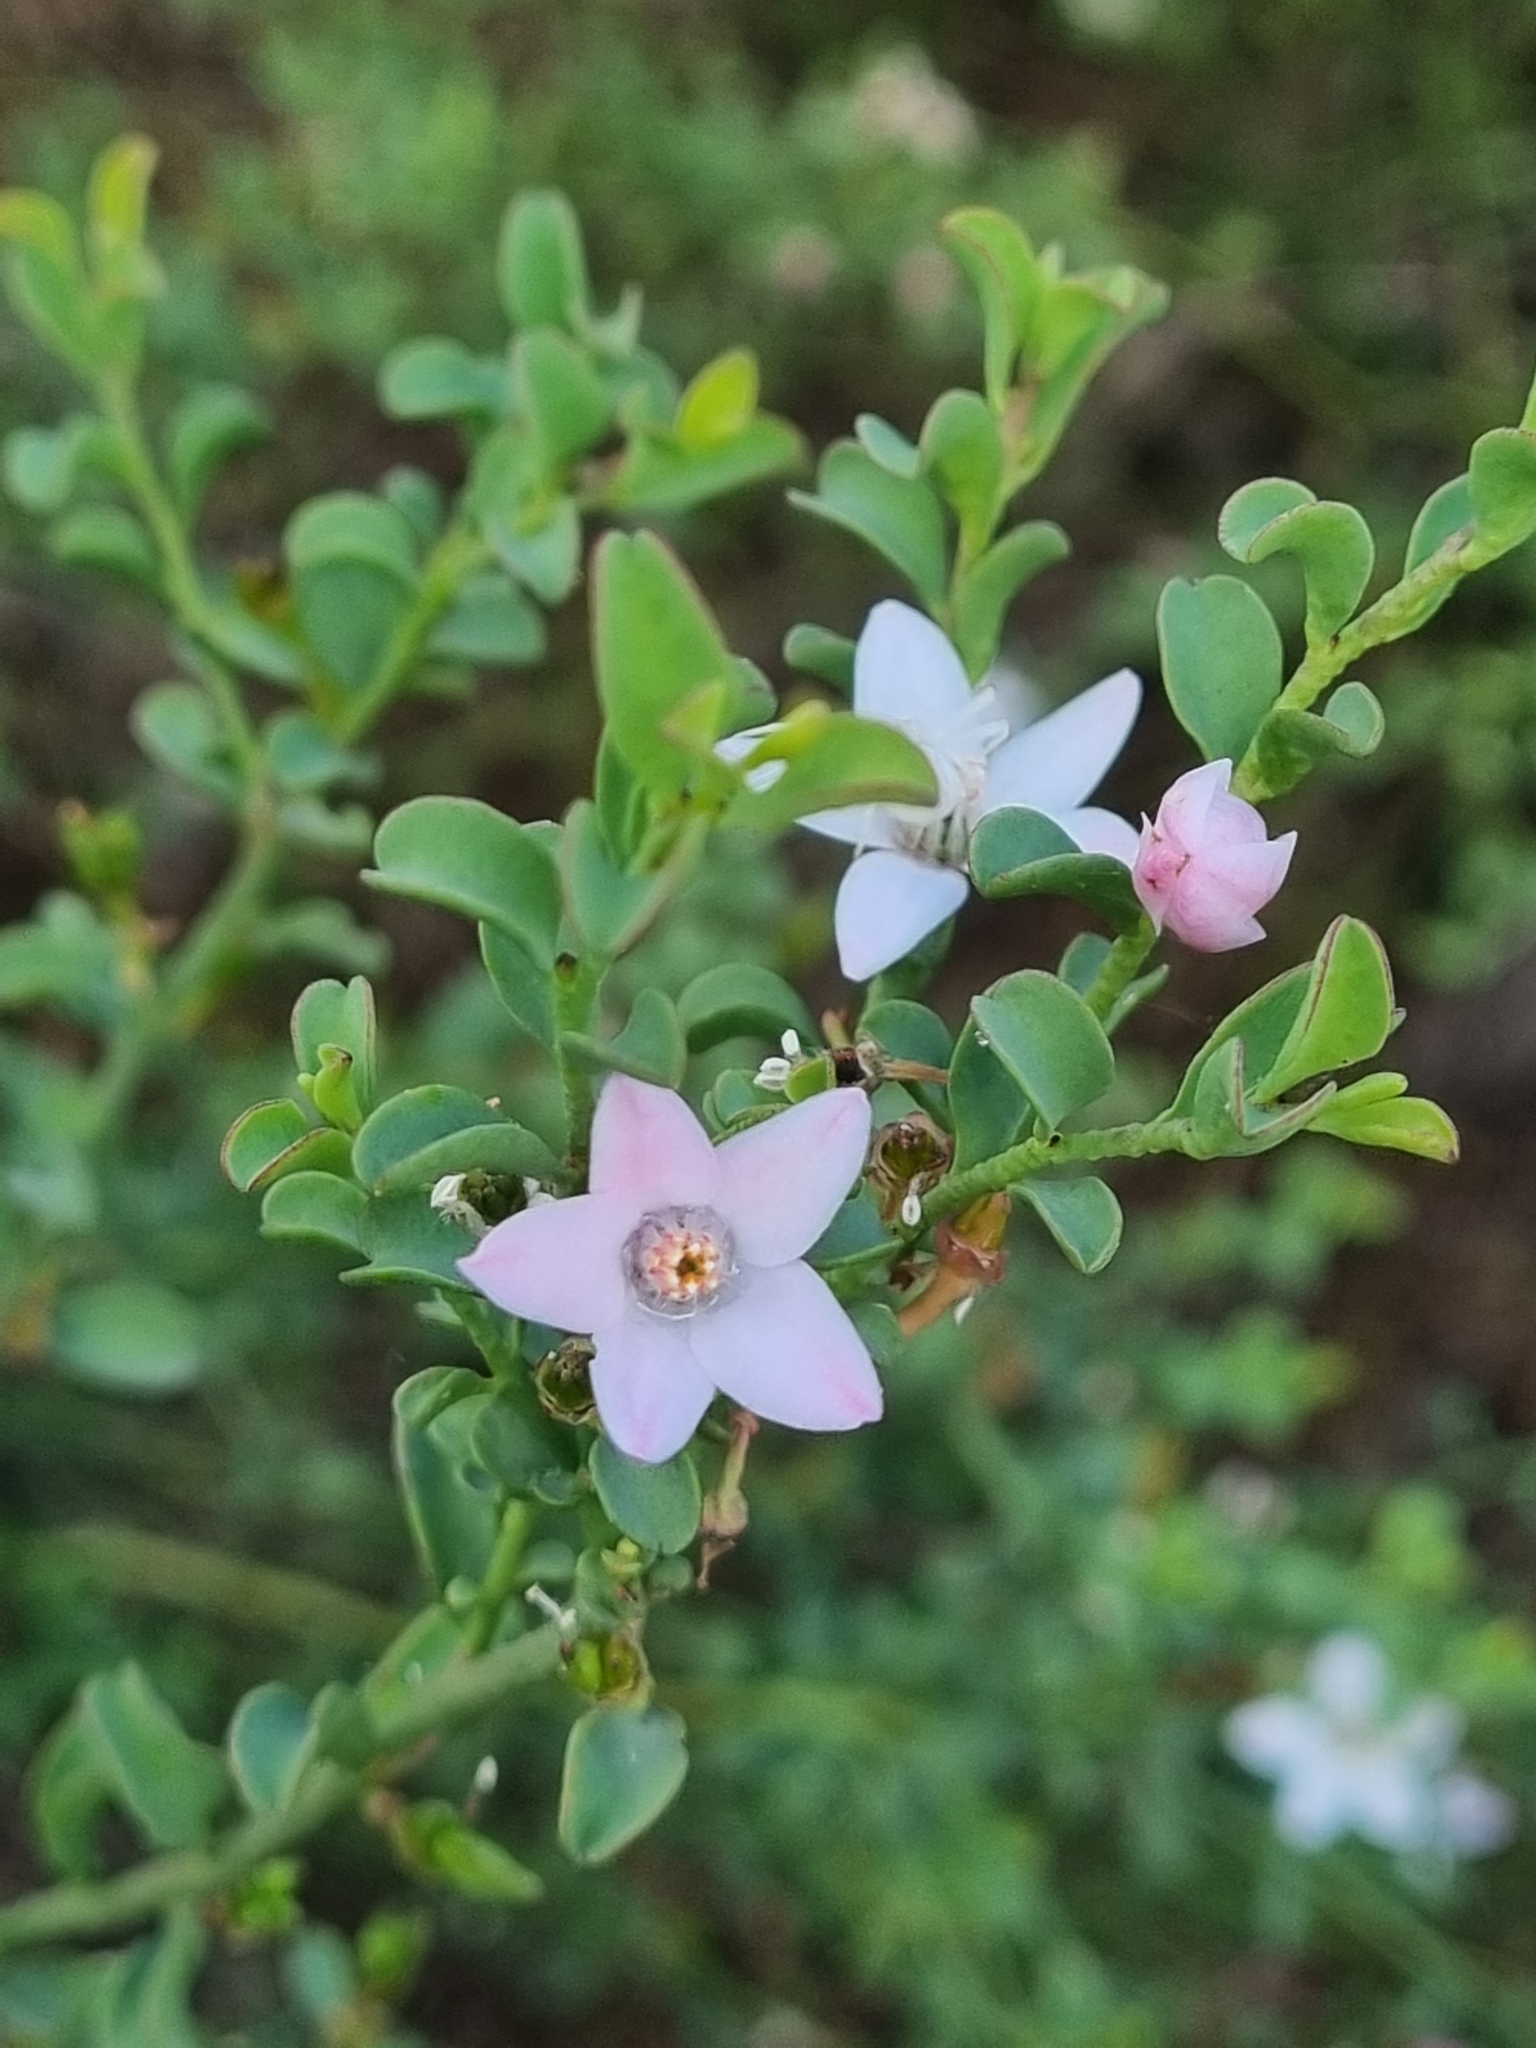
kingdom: Plantae
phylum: Tracheophyta
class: Magnoliopsida
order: Sapindales
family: Rutaceae
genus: Philotheca
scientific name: Philotheca verrucosa
